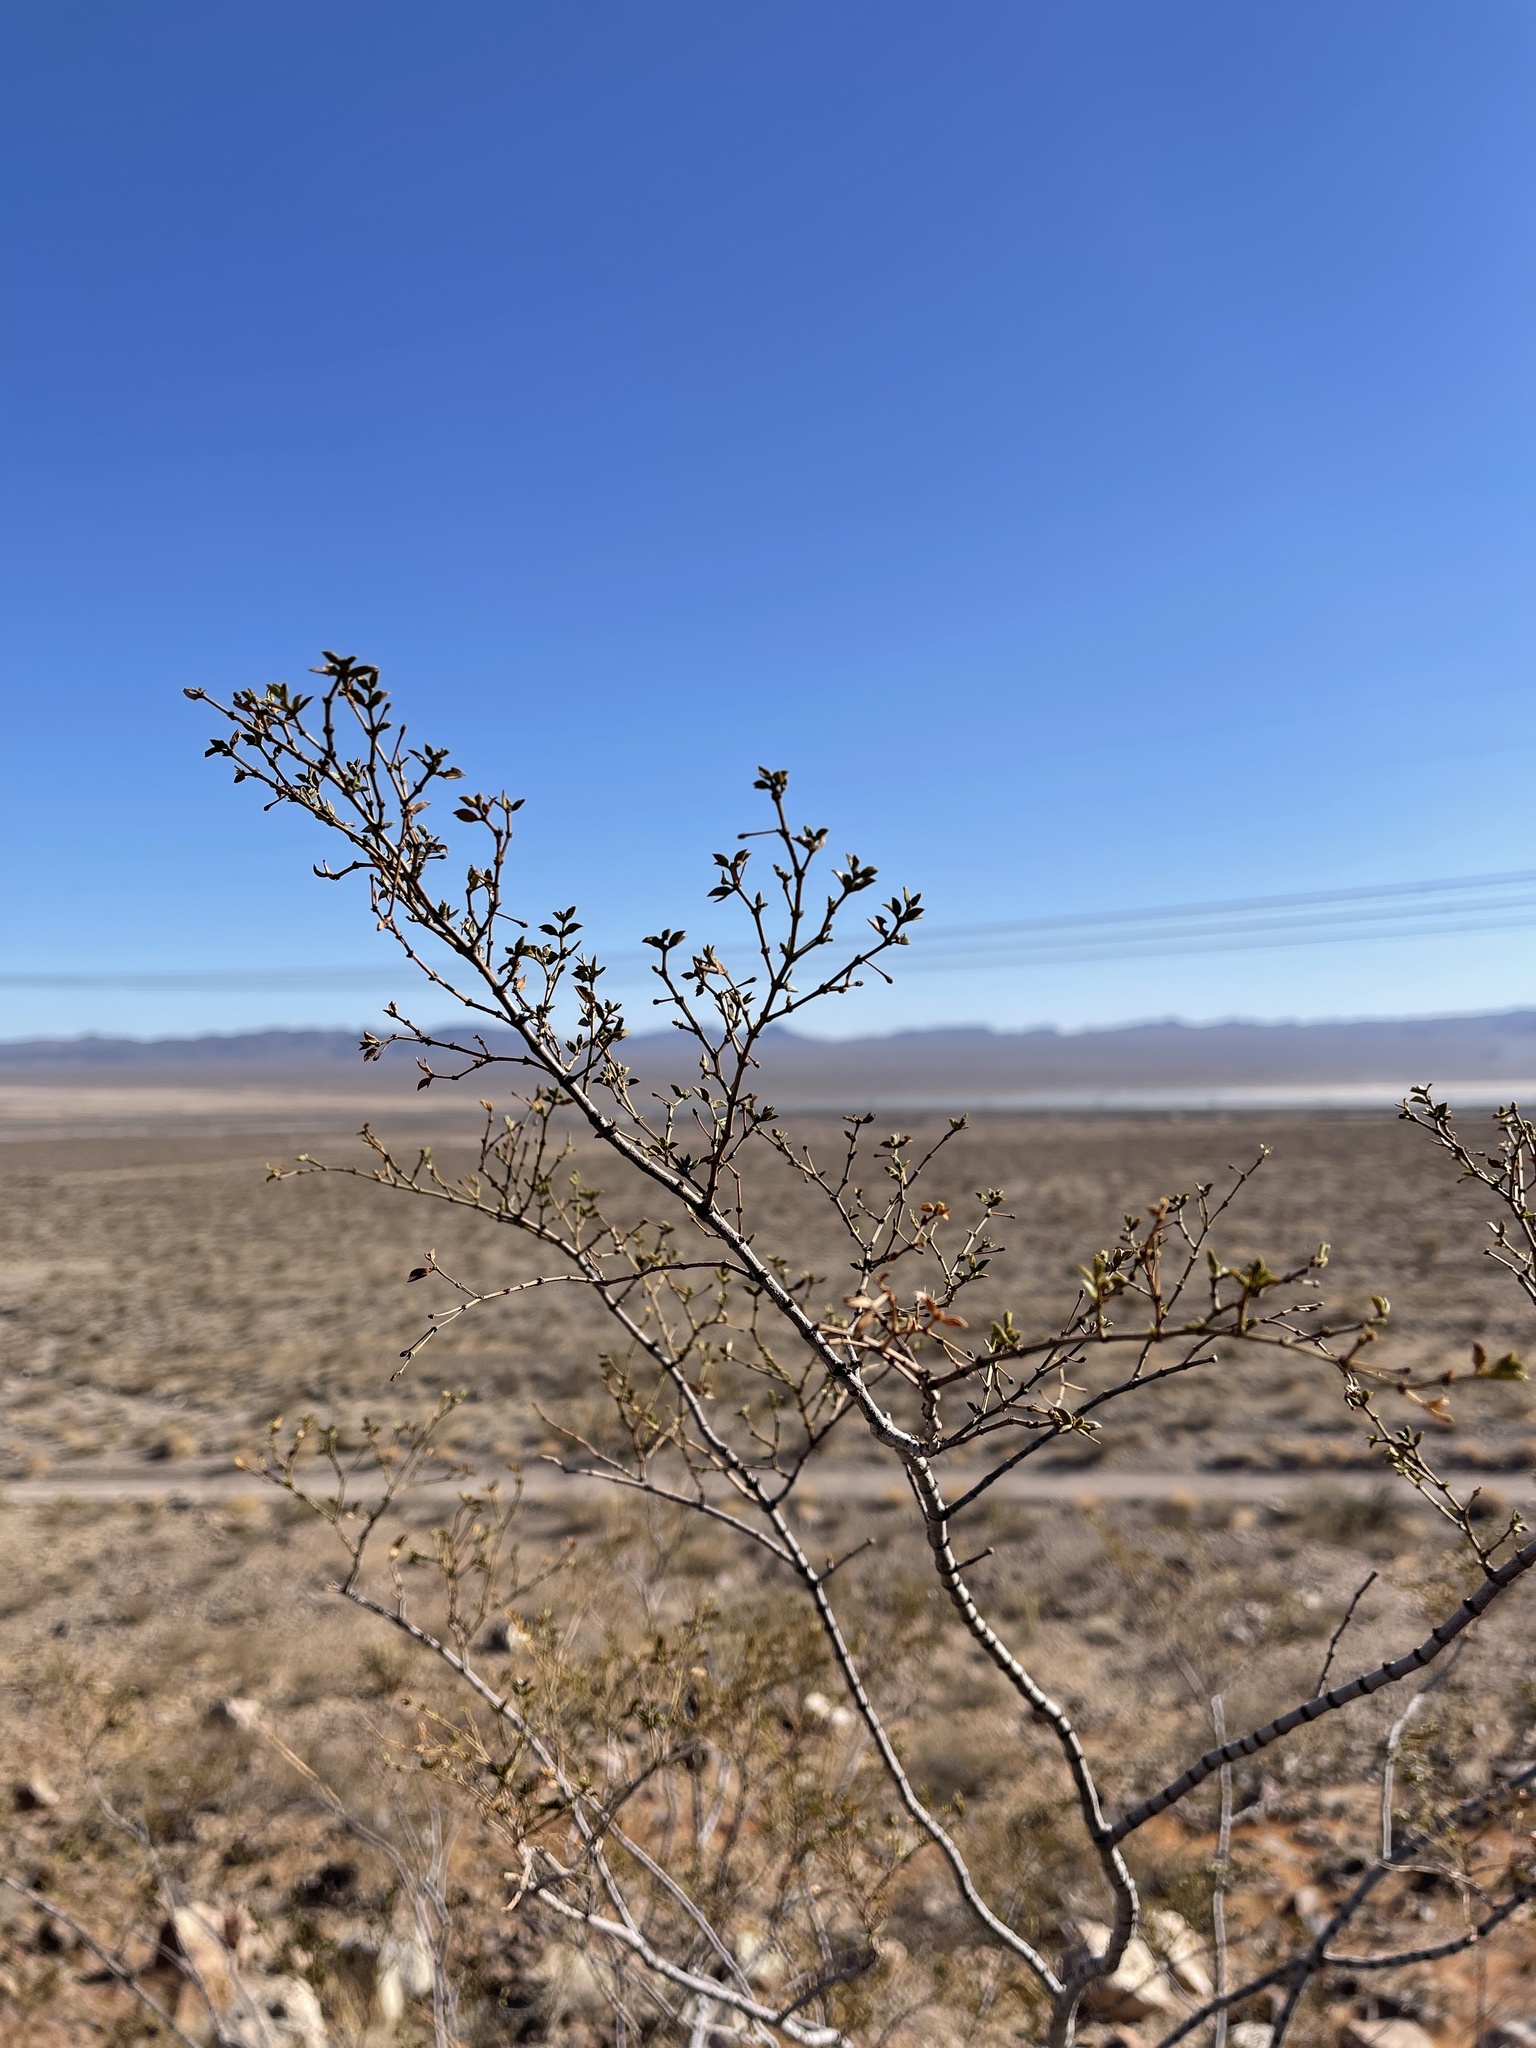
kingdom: Plantae
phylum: Tracheophyta
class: Magnoliopsida
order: Zygophyllales
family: Zygophyllaceae
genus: Larrea
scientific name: Larrea tridentata
